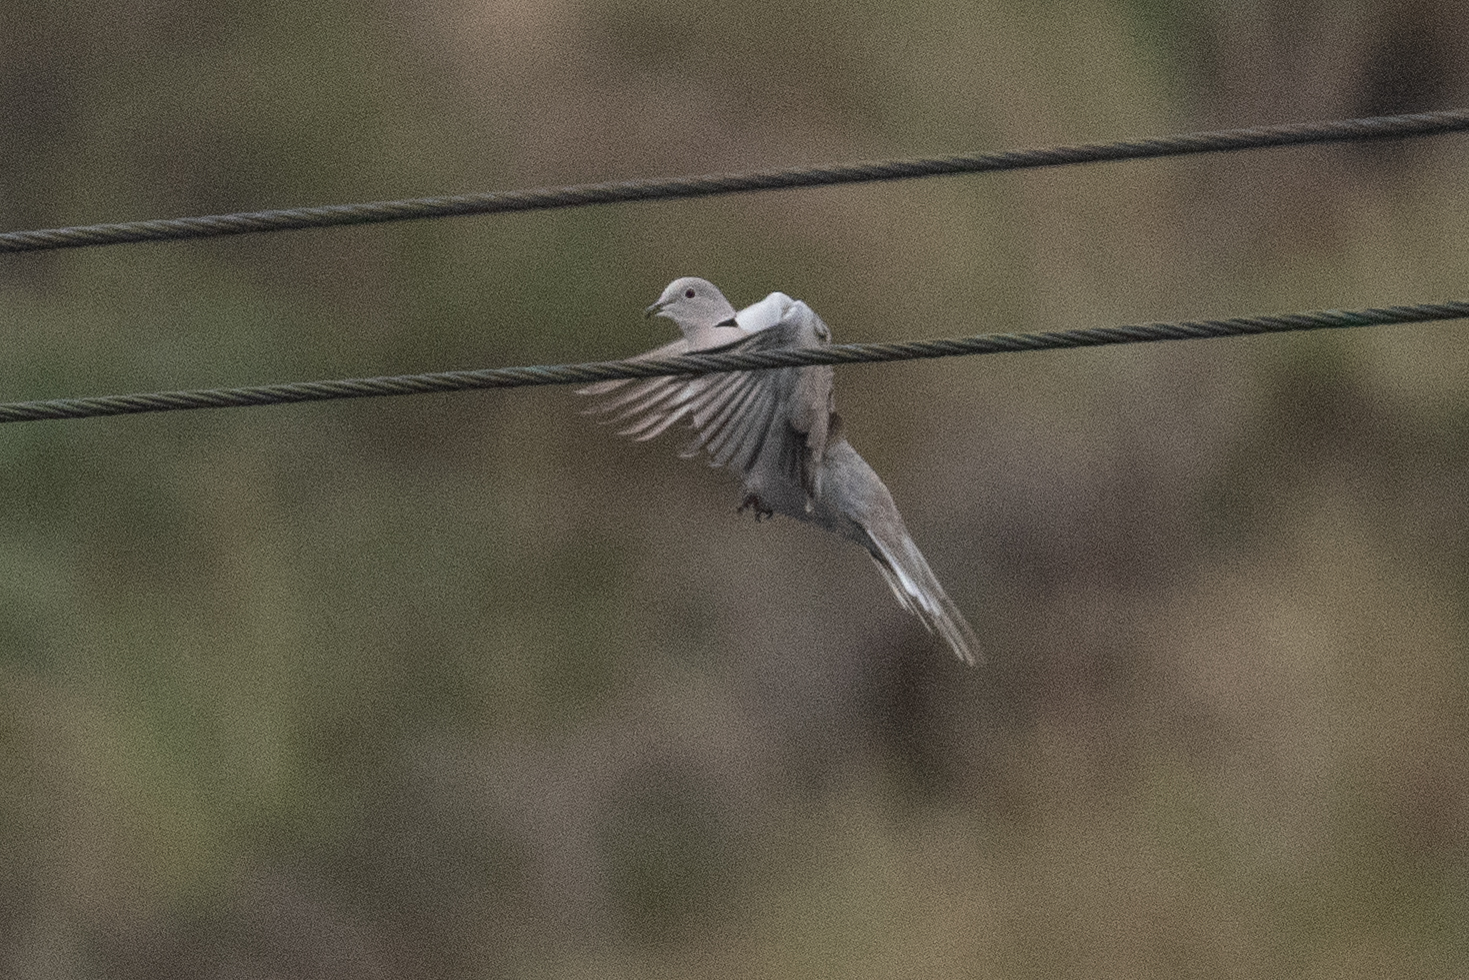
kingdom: Animalia
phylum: Chordata
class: Aves
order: Columbiformes
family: Columbidae
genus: Streptopelia
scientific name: Streptopelia decaocto
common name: Eurasian collared dove
